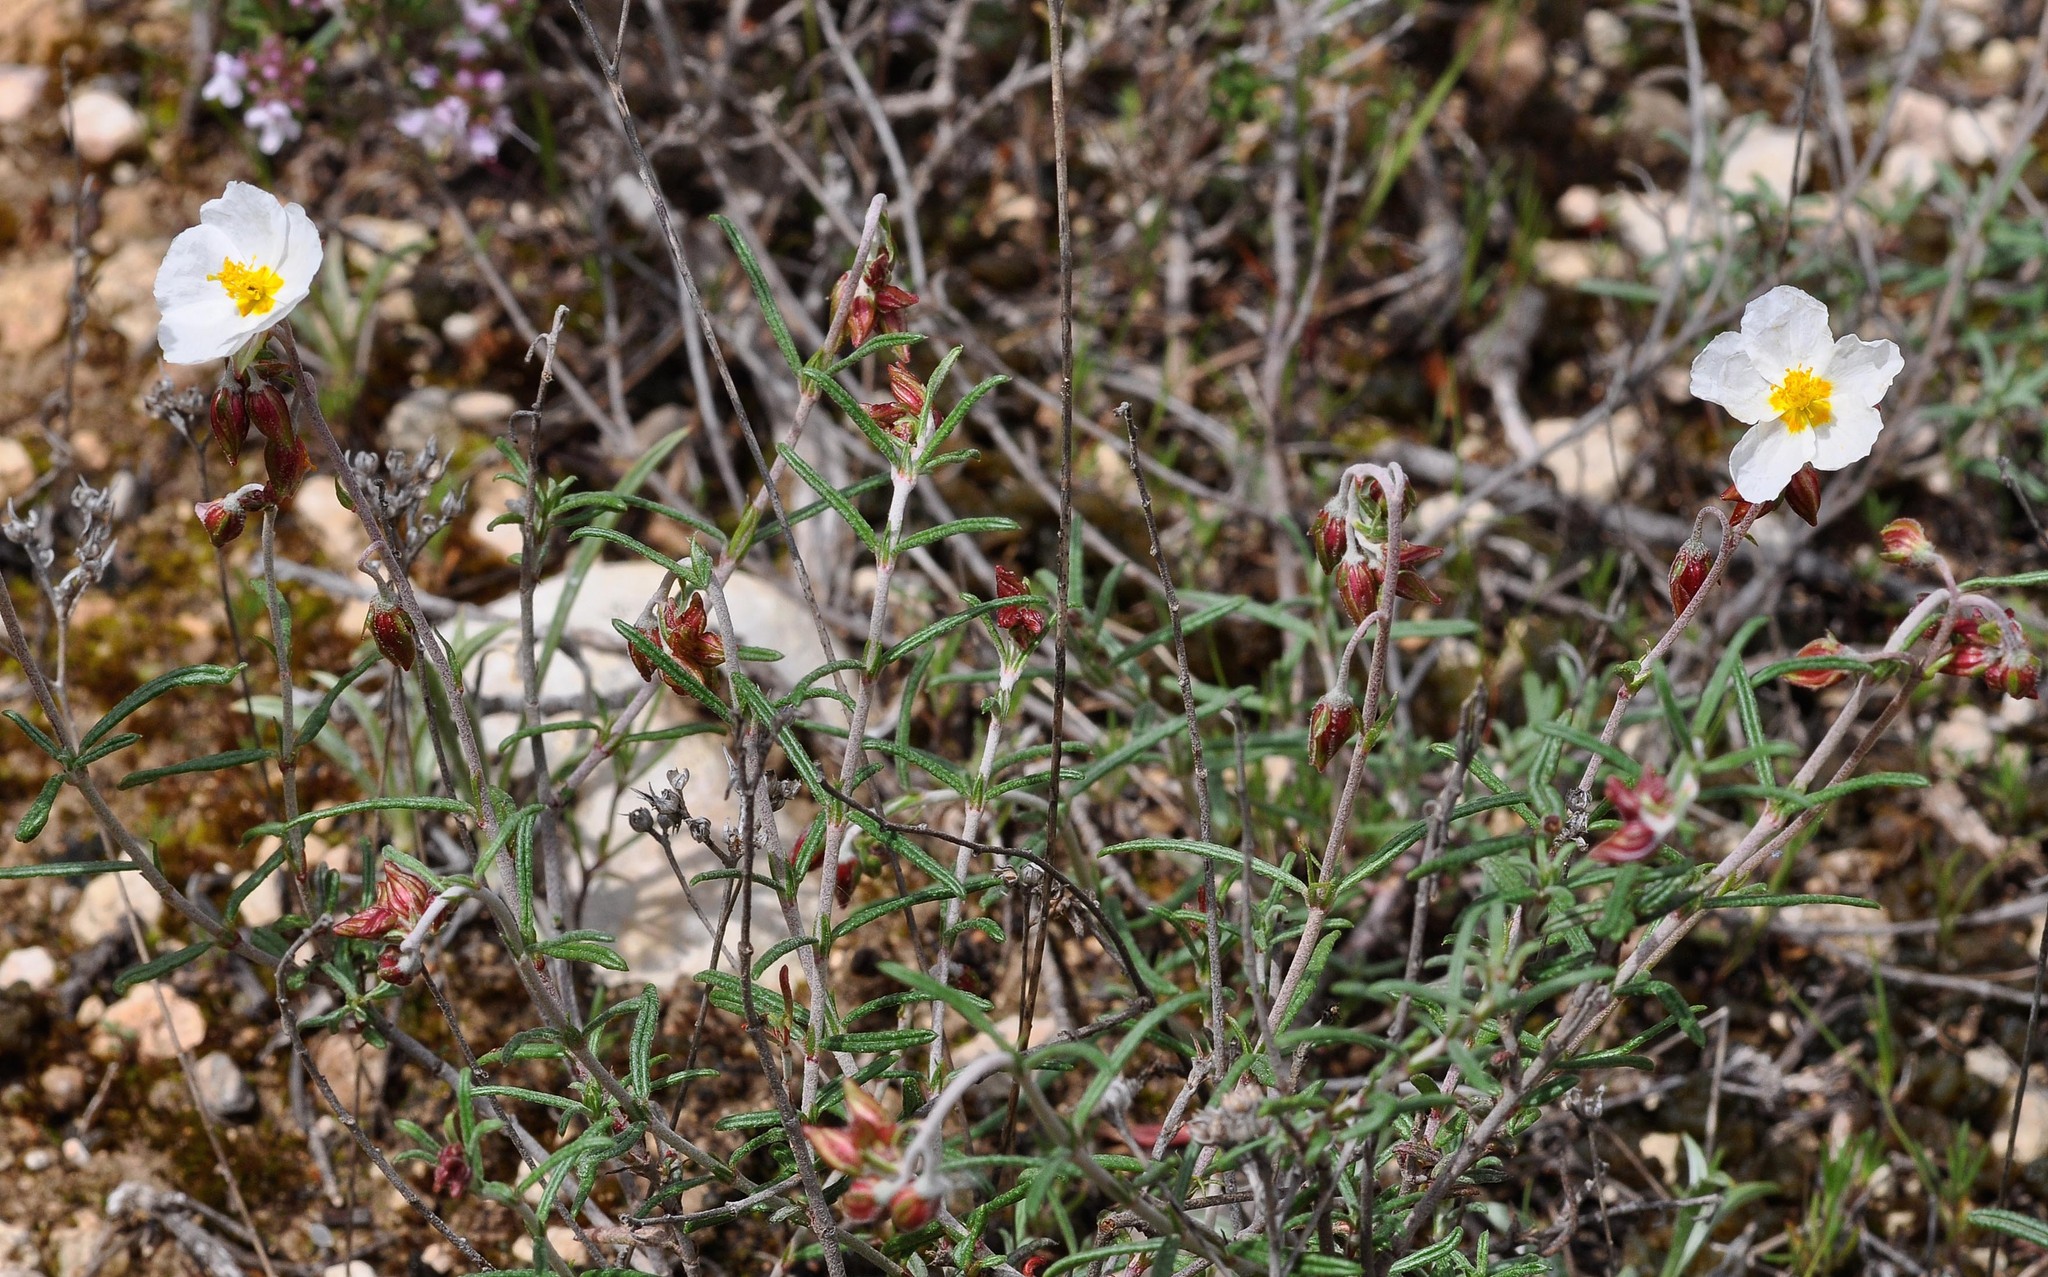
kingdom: Plantae
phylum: Tracheophyta
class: Magnoliopsida
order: Malvales
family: Cistaceae
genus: Helianthemum
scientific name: Helianthemum violaceum
